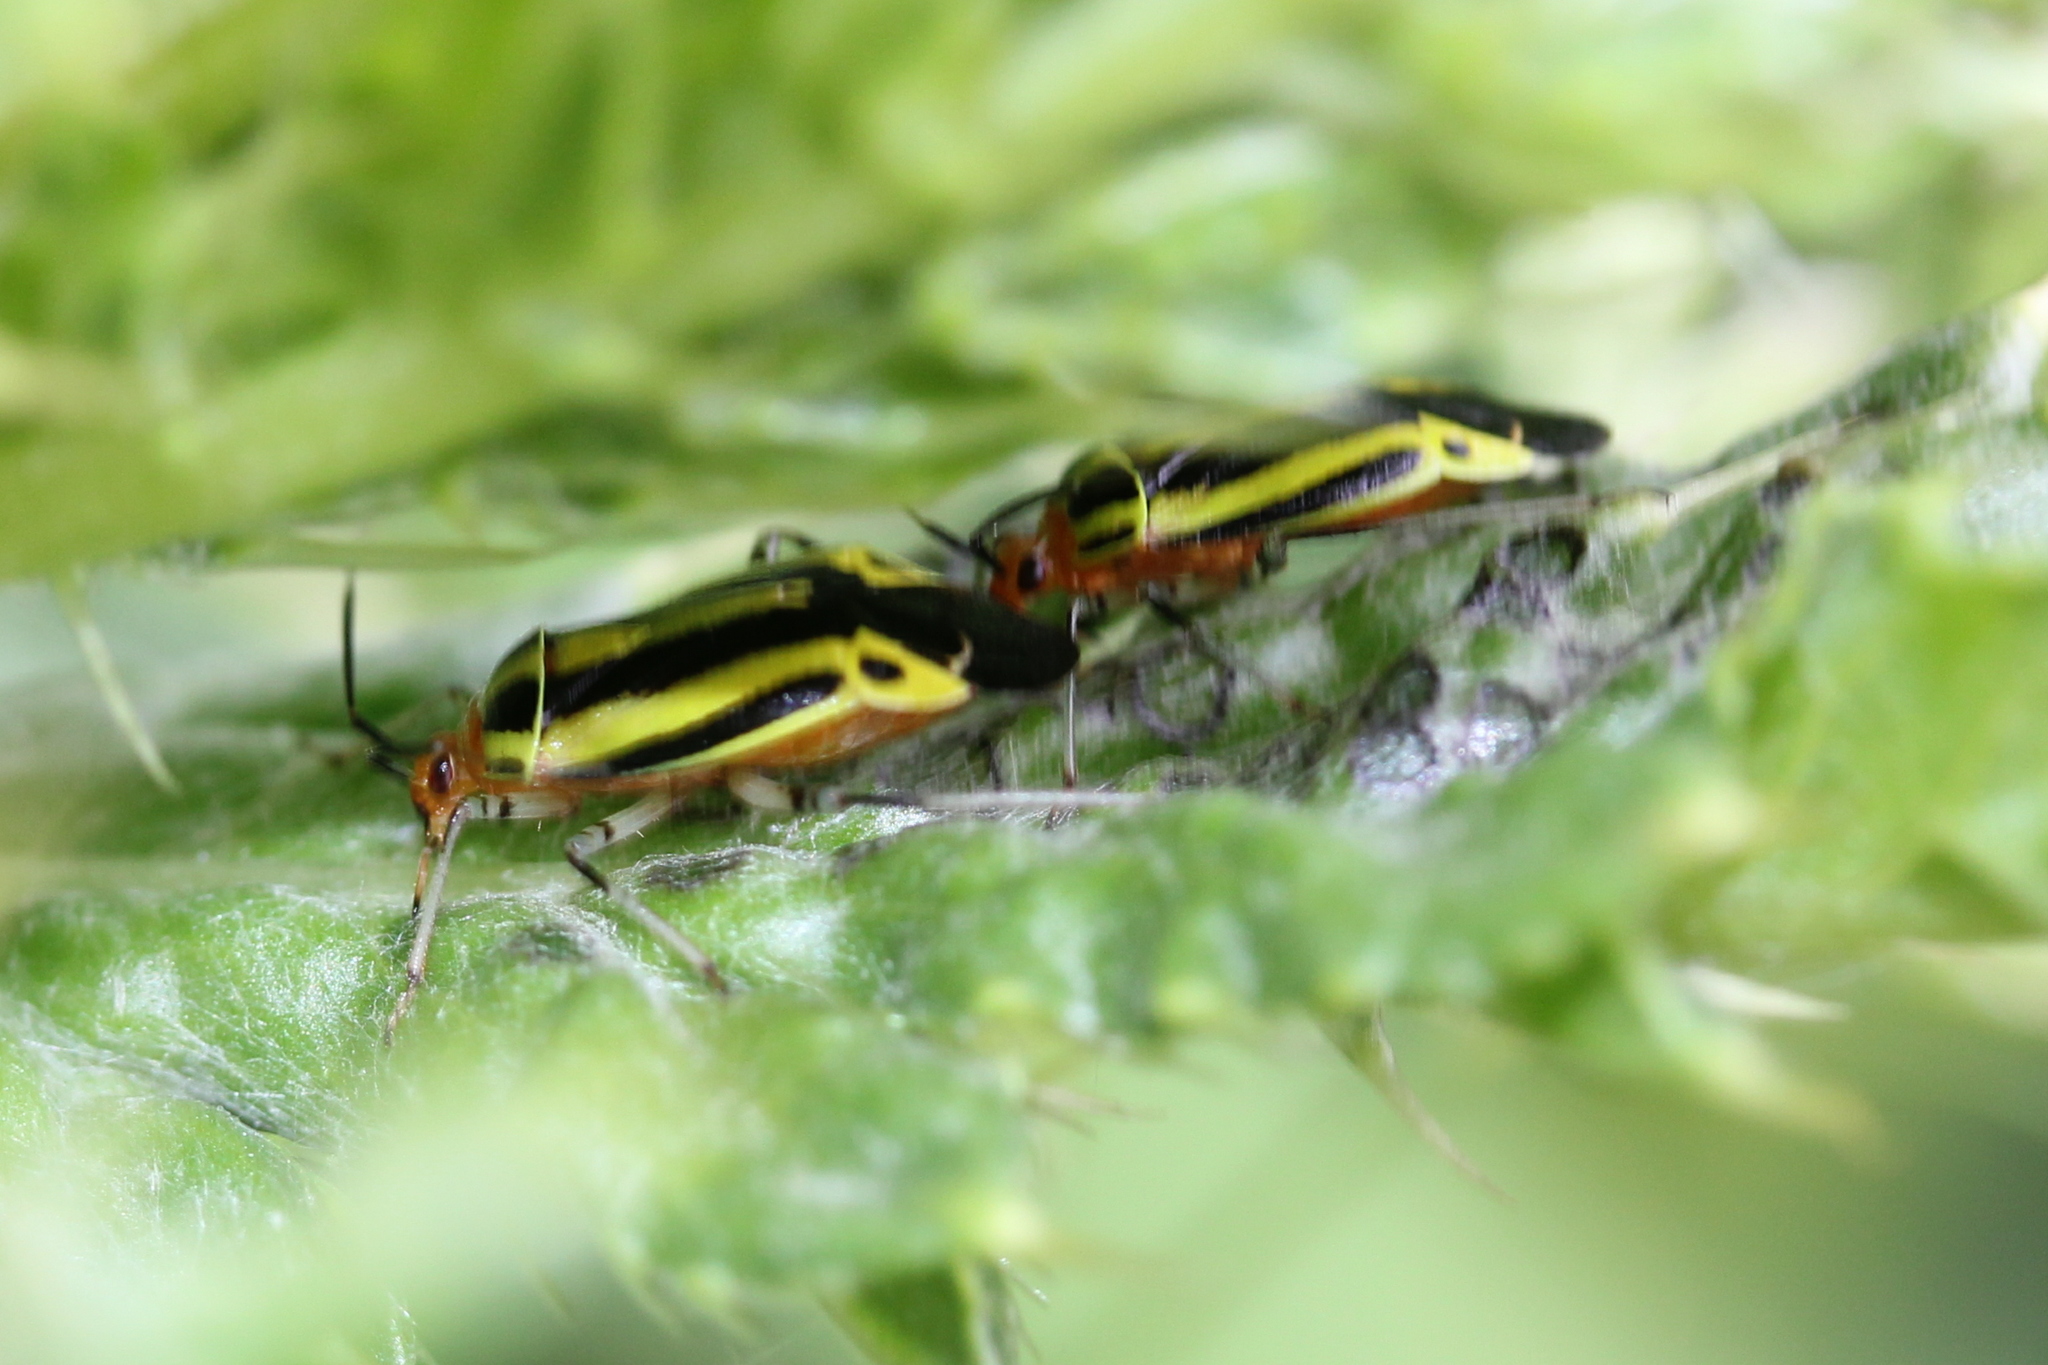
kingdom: Animalia
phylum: Arthropoda
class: Insecta
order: Hemiptera
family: Miridae
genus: Poecilocapsus
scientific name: Poecilocapsus lineatus
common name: Four-lined plant bug
